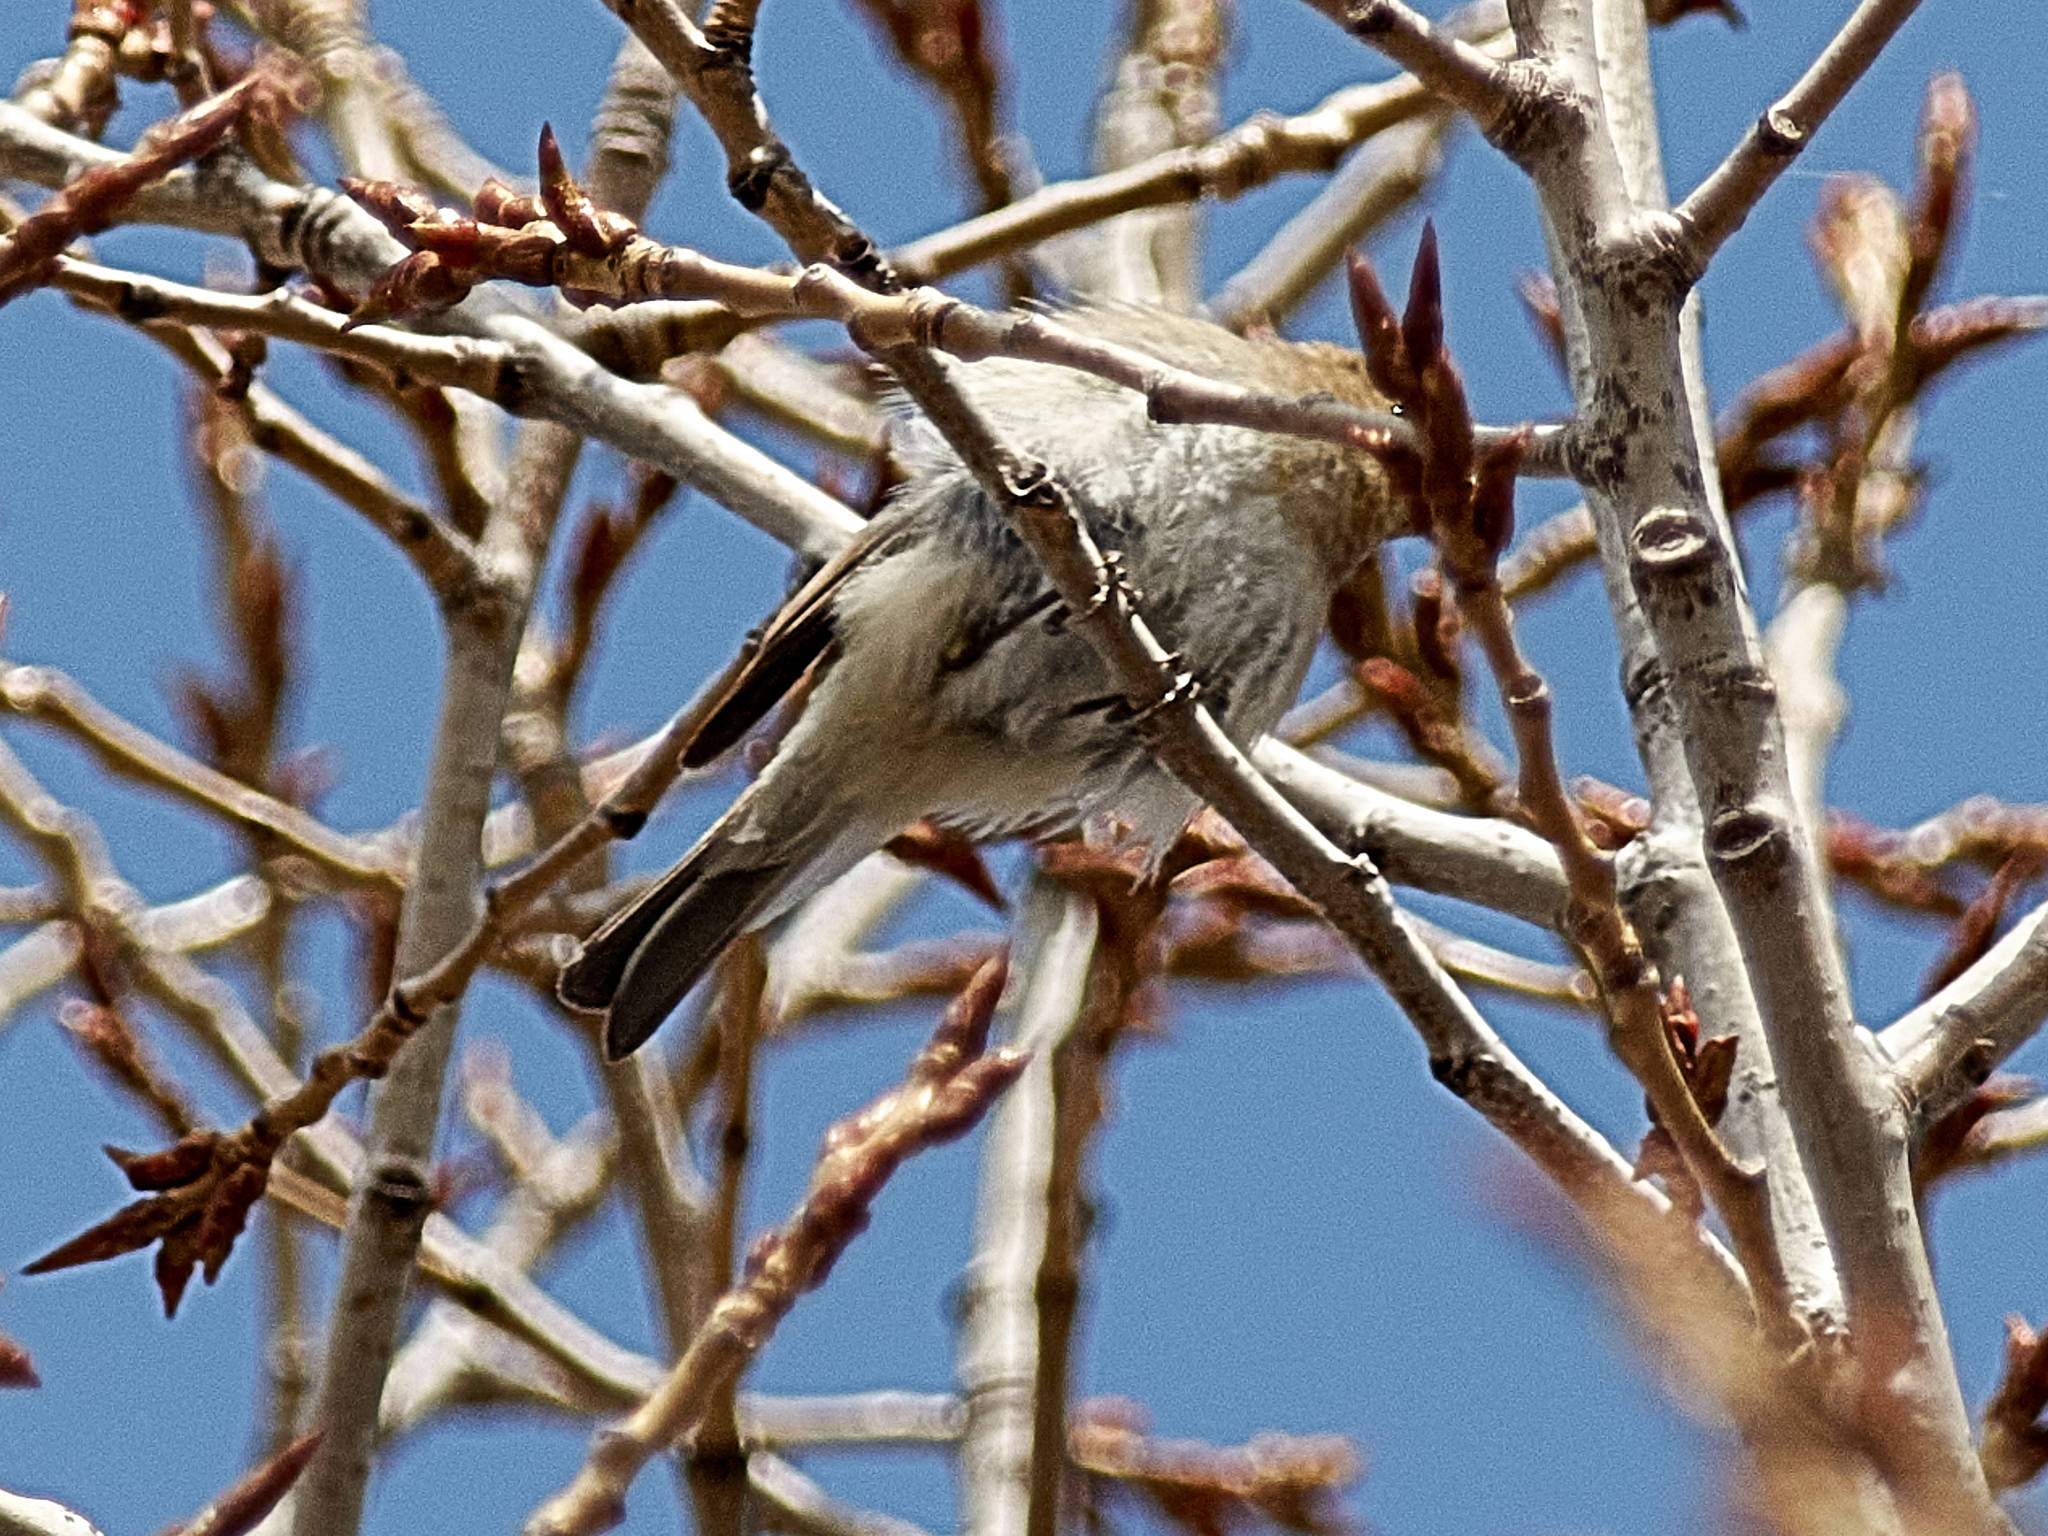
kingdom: Animalia
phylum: Chordata
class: Aves
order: Passeriformes
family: Phylloscopidae
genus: Phylloscopus
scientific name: Phylloscopus collybita
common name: Common chiffchaff
